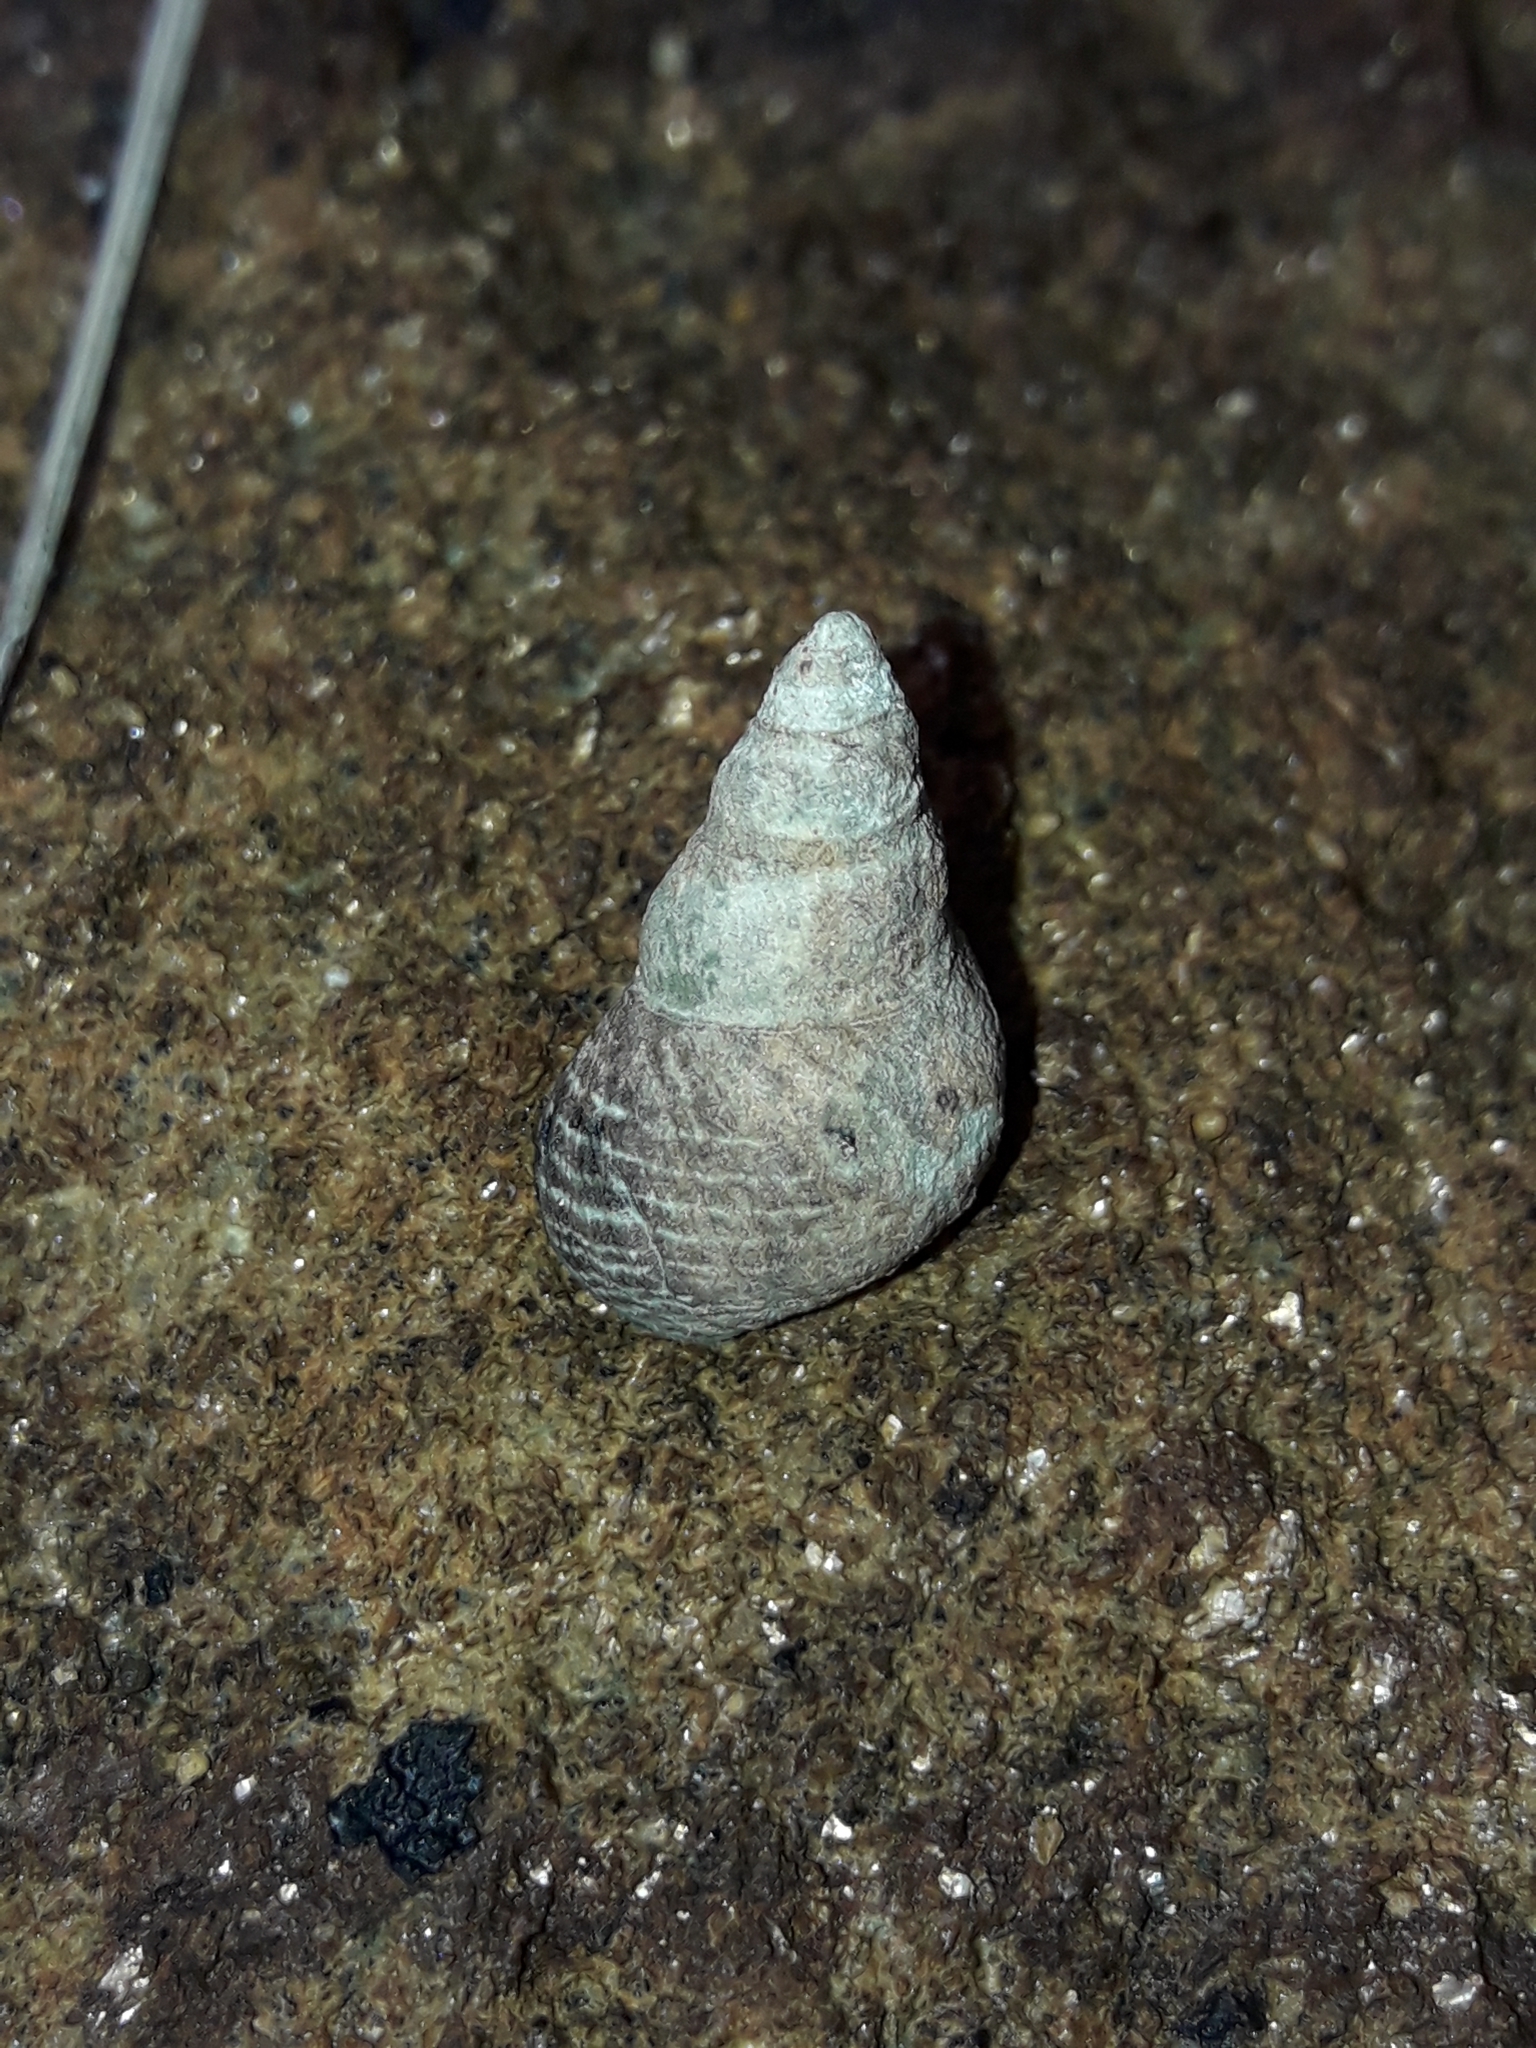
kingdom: Animalia
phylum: Mollusca
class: Gastropoda
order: Littorinimorpha
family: Littorinidae
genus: Austrolittorina
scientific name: Austrolittorina cincta
